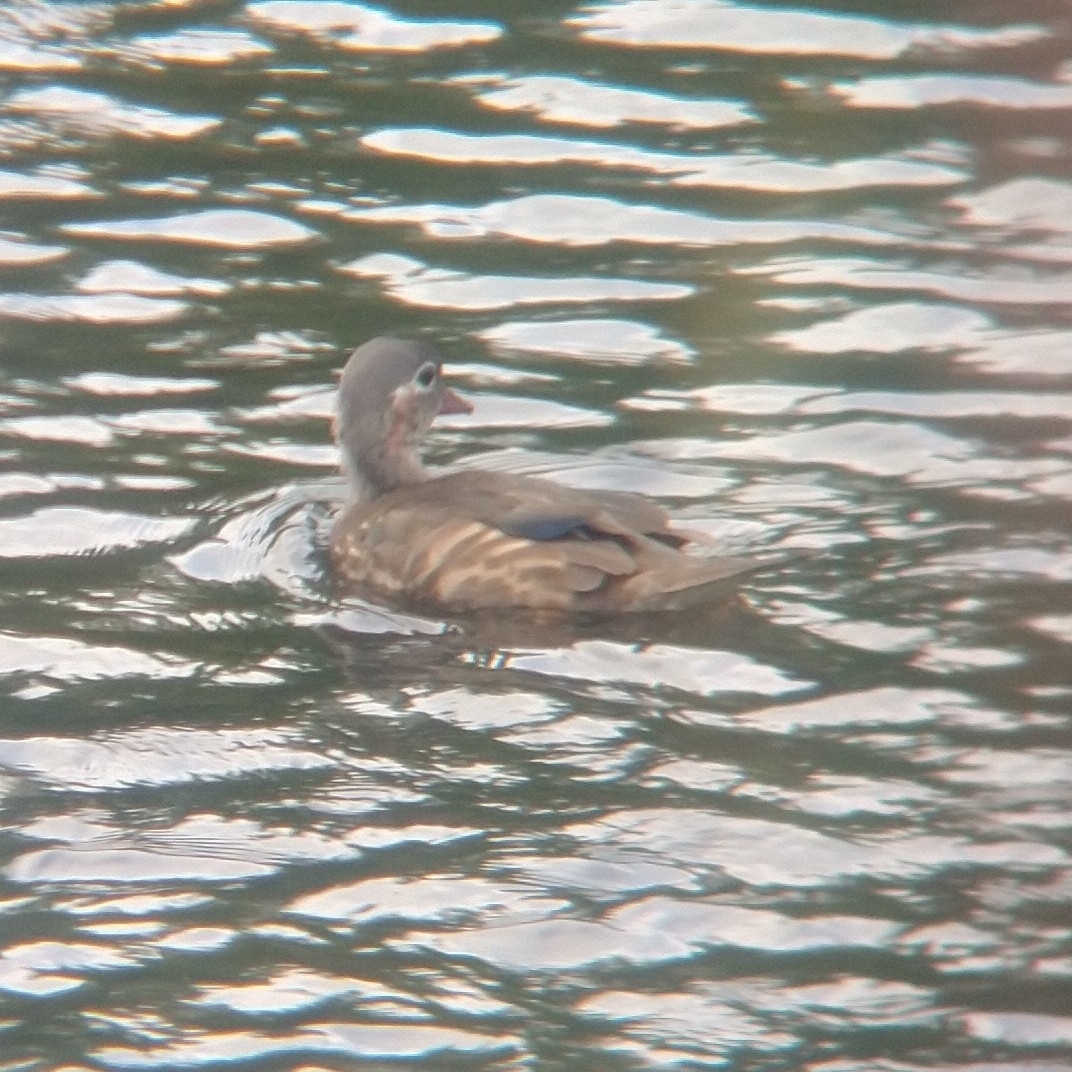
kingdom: Animalia
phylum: Chordata
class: Aves
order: Anseriformes
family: Anatidae
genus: Aix
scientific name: Aix galericulata
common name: Mandarin duck
